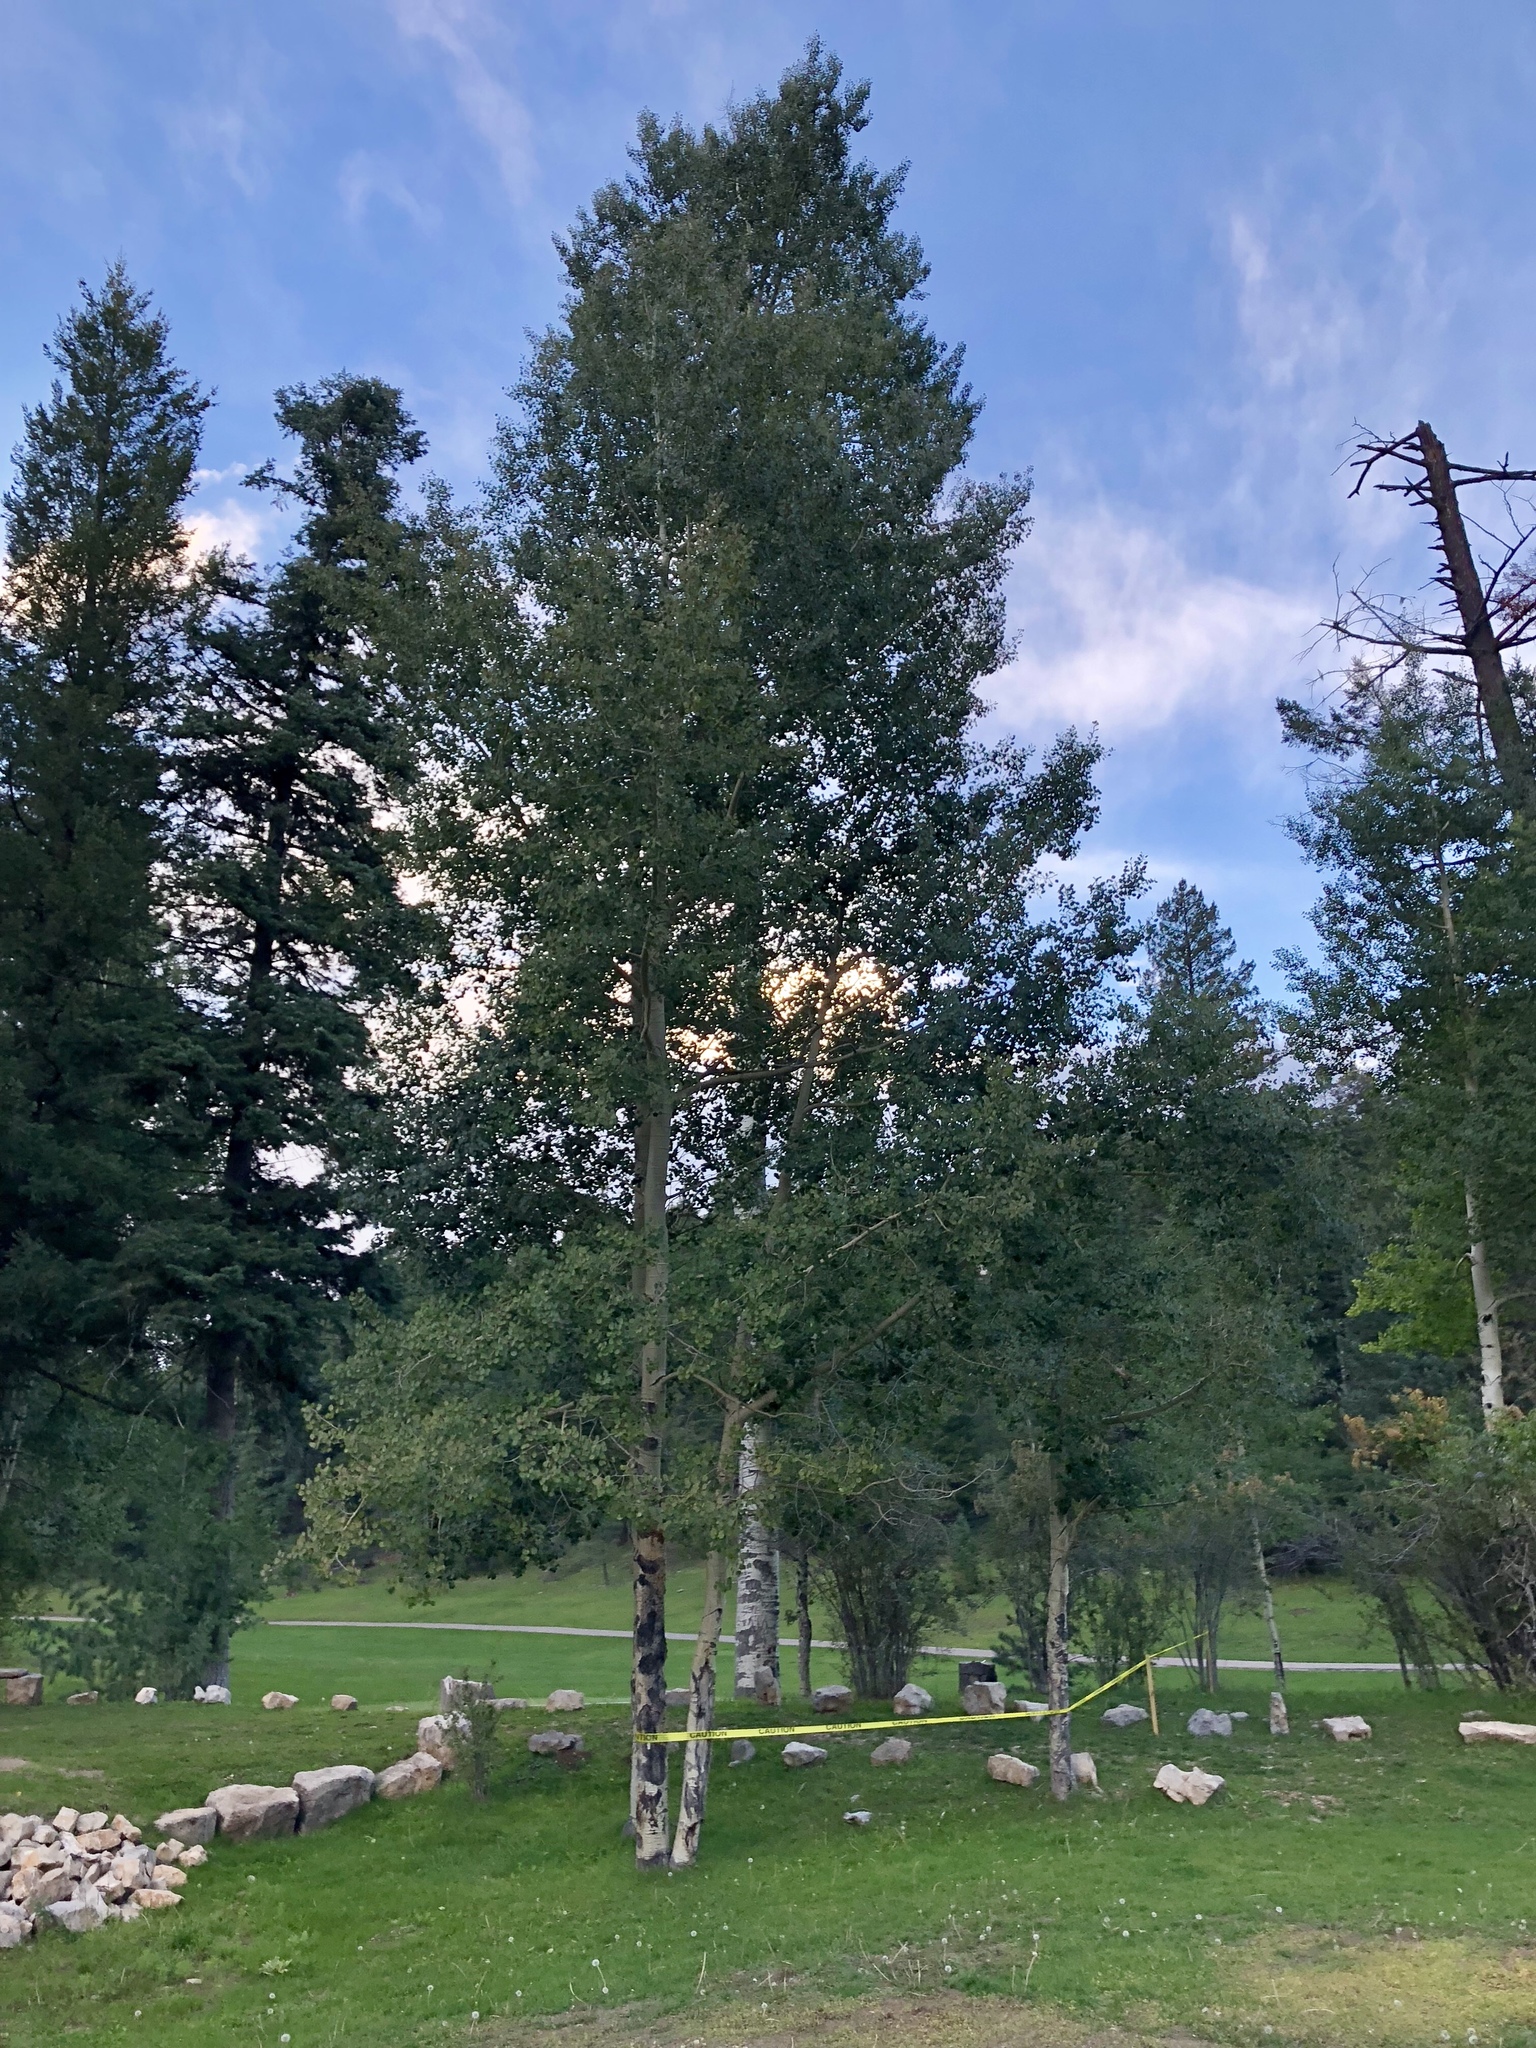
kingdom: Plantae
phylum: Tracheophyta
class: Magnoliopsida
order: Malpighiales
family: Salicaceae
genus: Populus
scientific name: Populus tremuloides
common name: Quaking aspen
